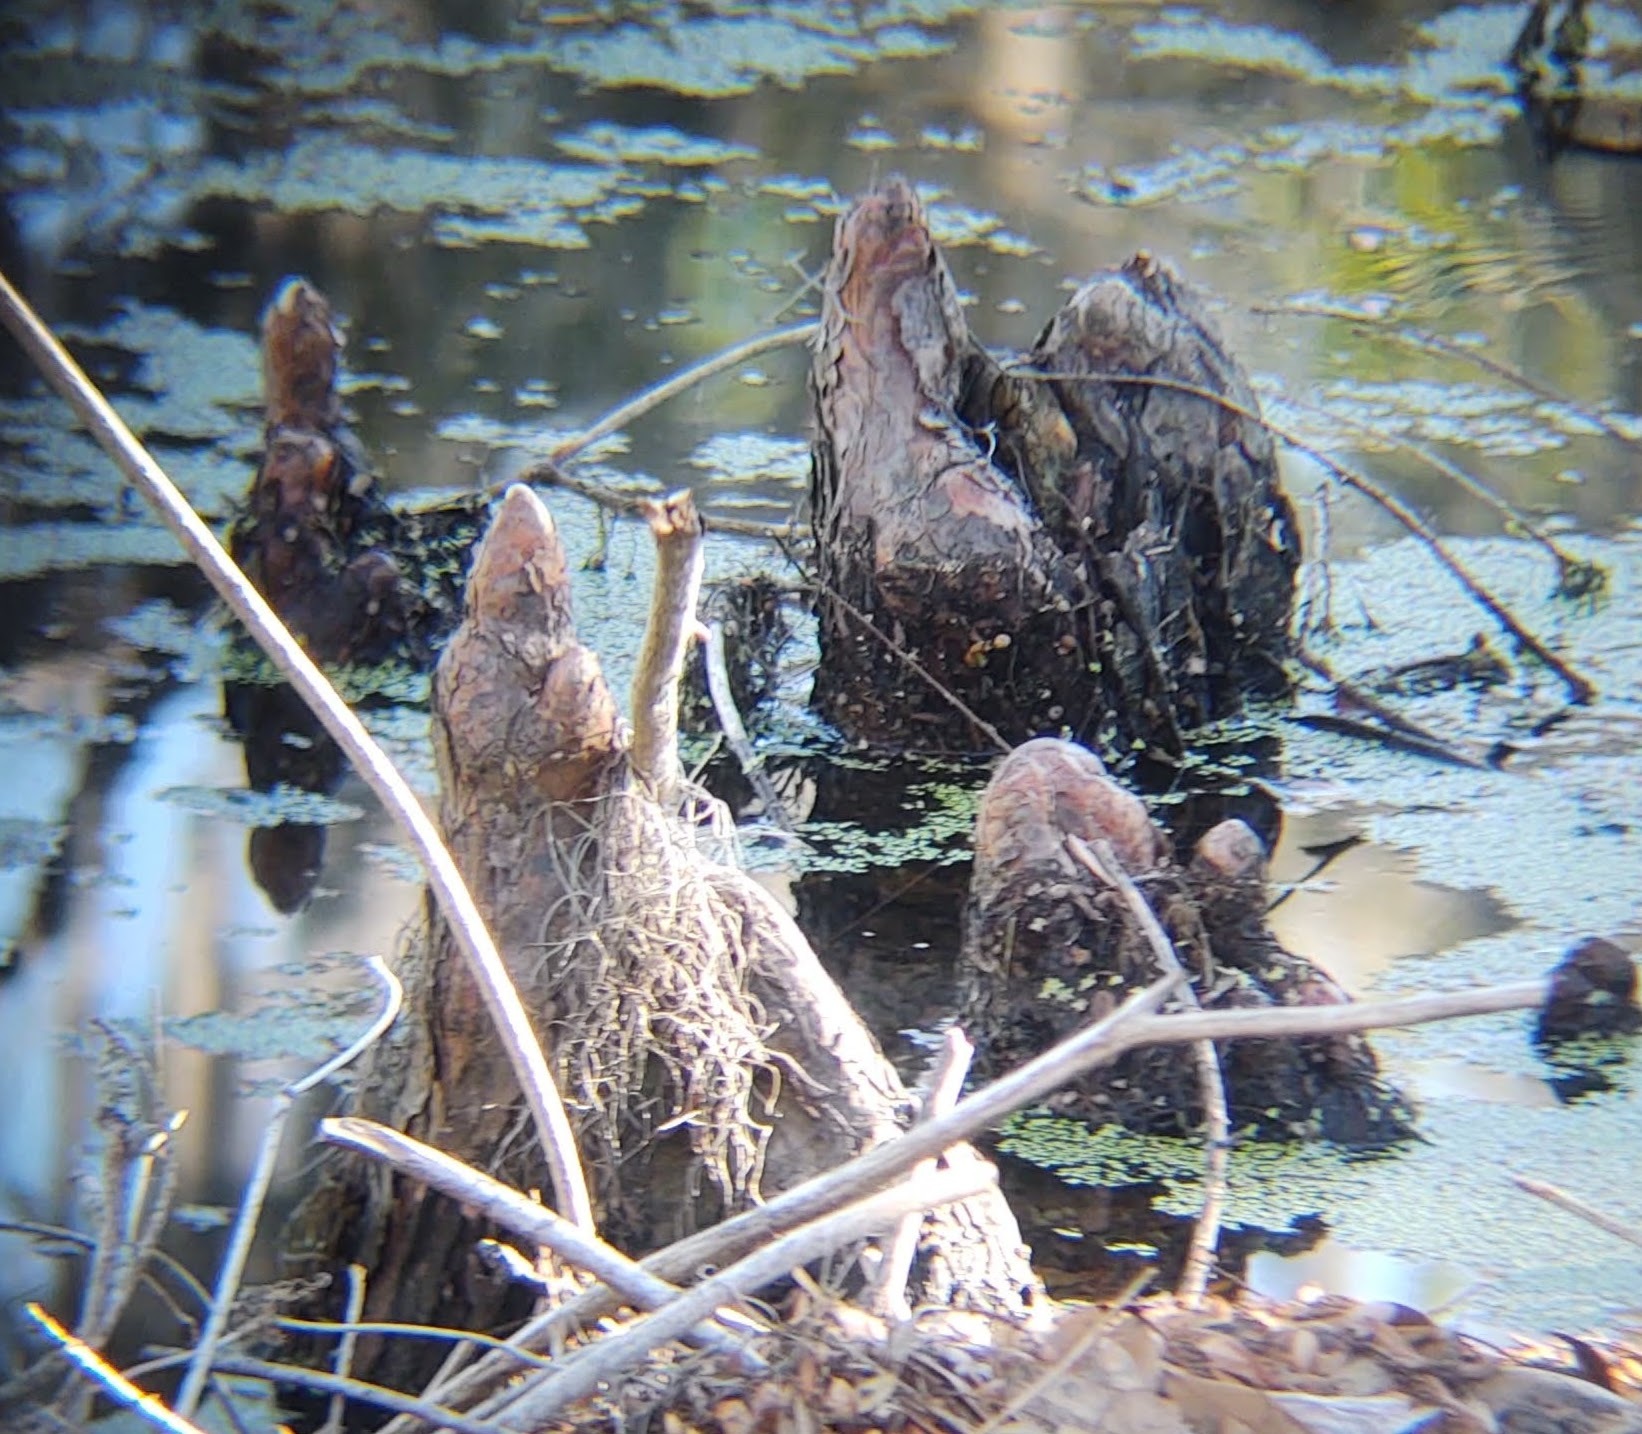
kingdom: Plantae
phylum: Tracheophyta
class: Pinopsida
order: Pinales
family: Cupressaceae
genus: Taxodium
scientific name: Taxodium distichum
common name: Bald cypress
